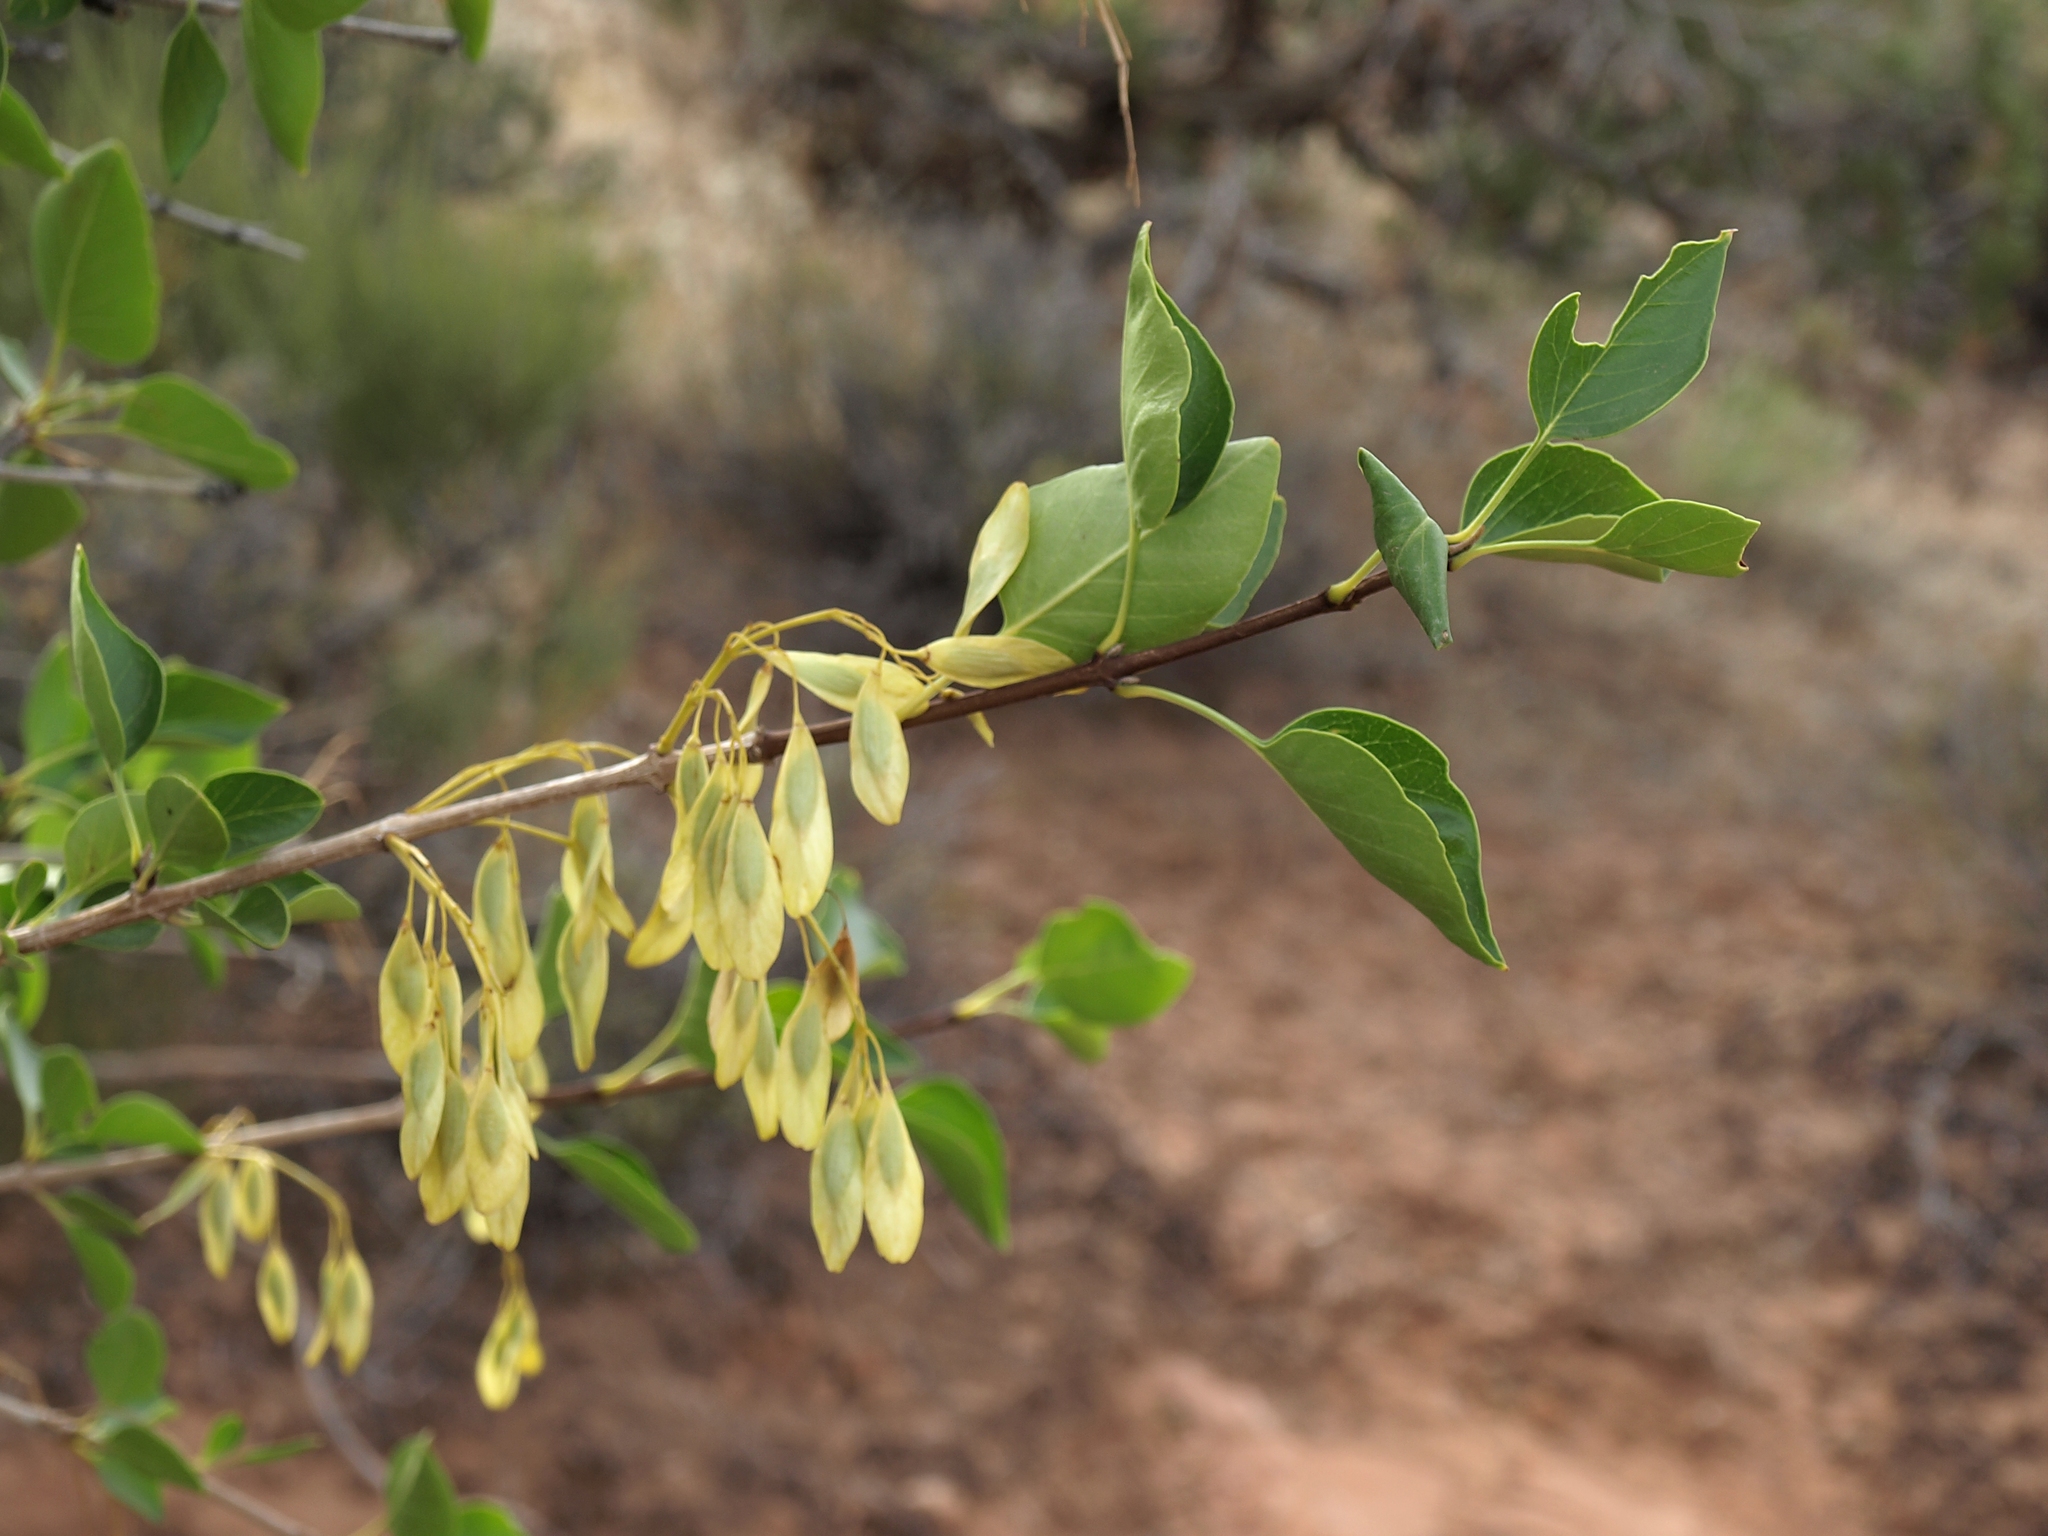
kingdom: Plantae
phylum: Tracheophyta
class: Magnoliopsida
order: Lamiales
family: Oleaceae
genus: Fraxinus
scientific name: Fraxinus anomala
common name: Utah ash
